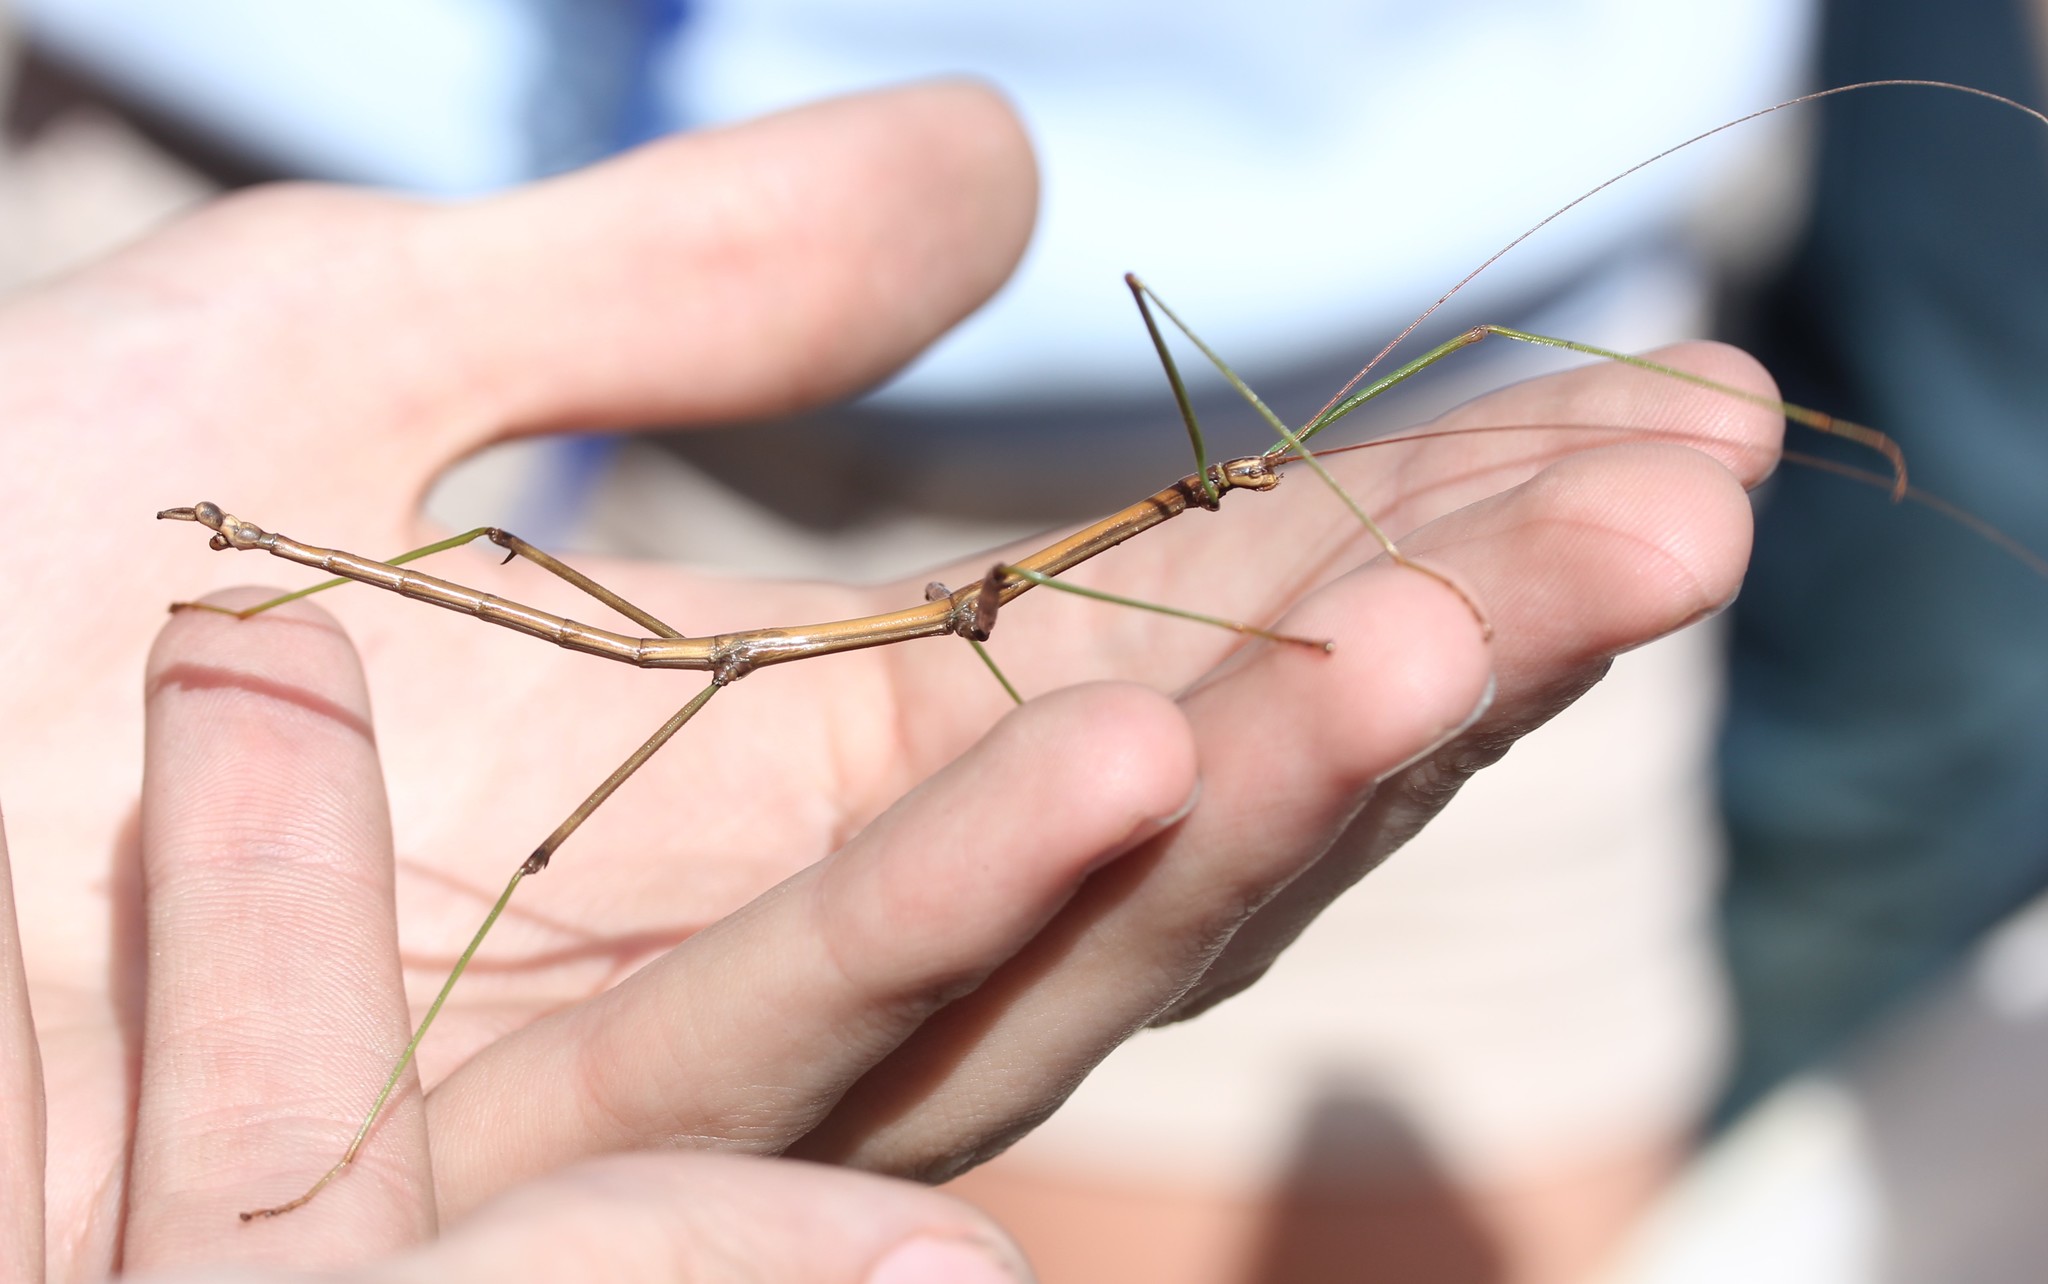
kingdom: Animalia
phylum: Arthropoda
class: Insecta
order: Phasmida
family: Diapheromeridae
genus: Diapheromera
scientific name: Diapheromera femorata
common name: Common american walkingstick
